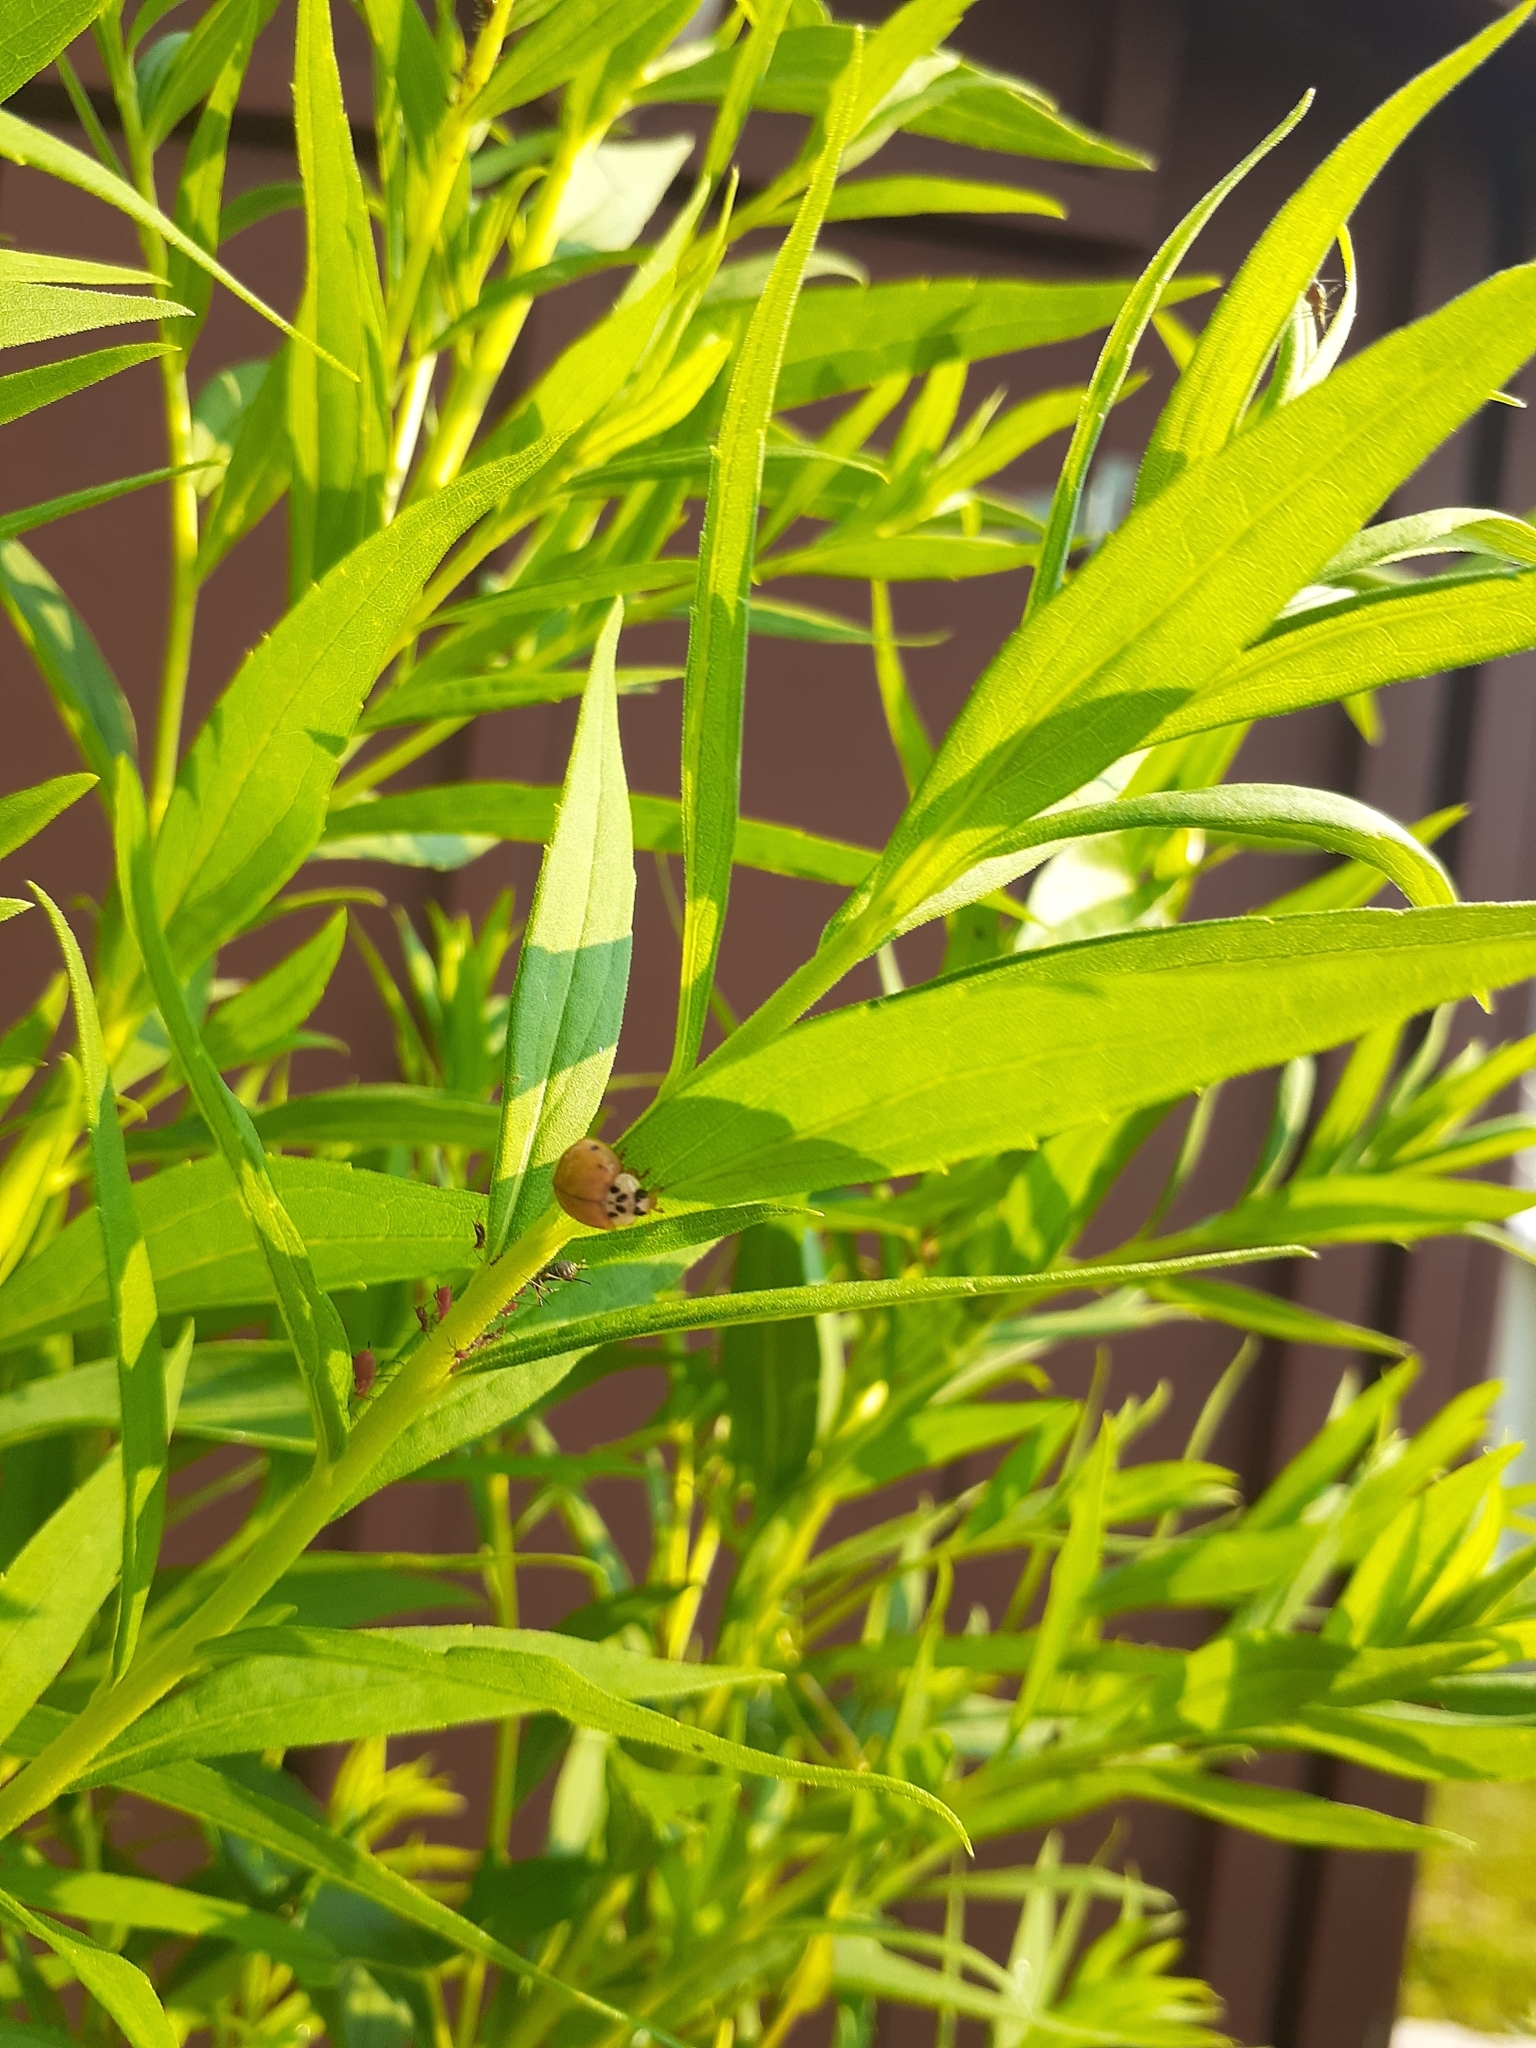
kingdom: Animalia
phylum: Arthropoda
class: Insecta
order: Coleoptera
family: Coccinellidae
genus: Harmonia
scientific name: Harmonia axyridis
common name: Harlequin ladybird
